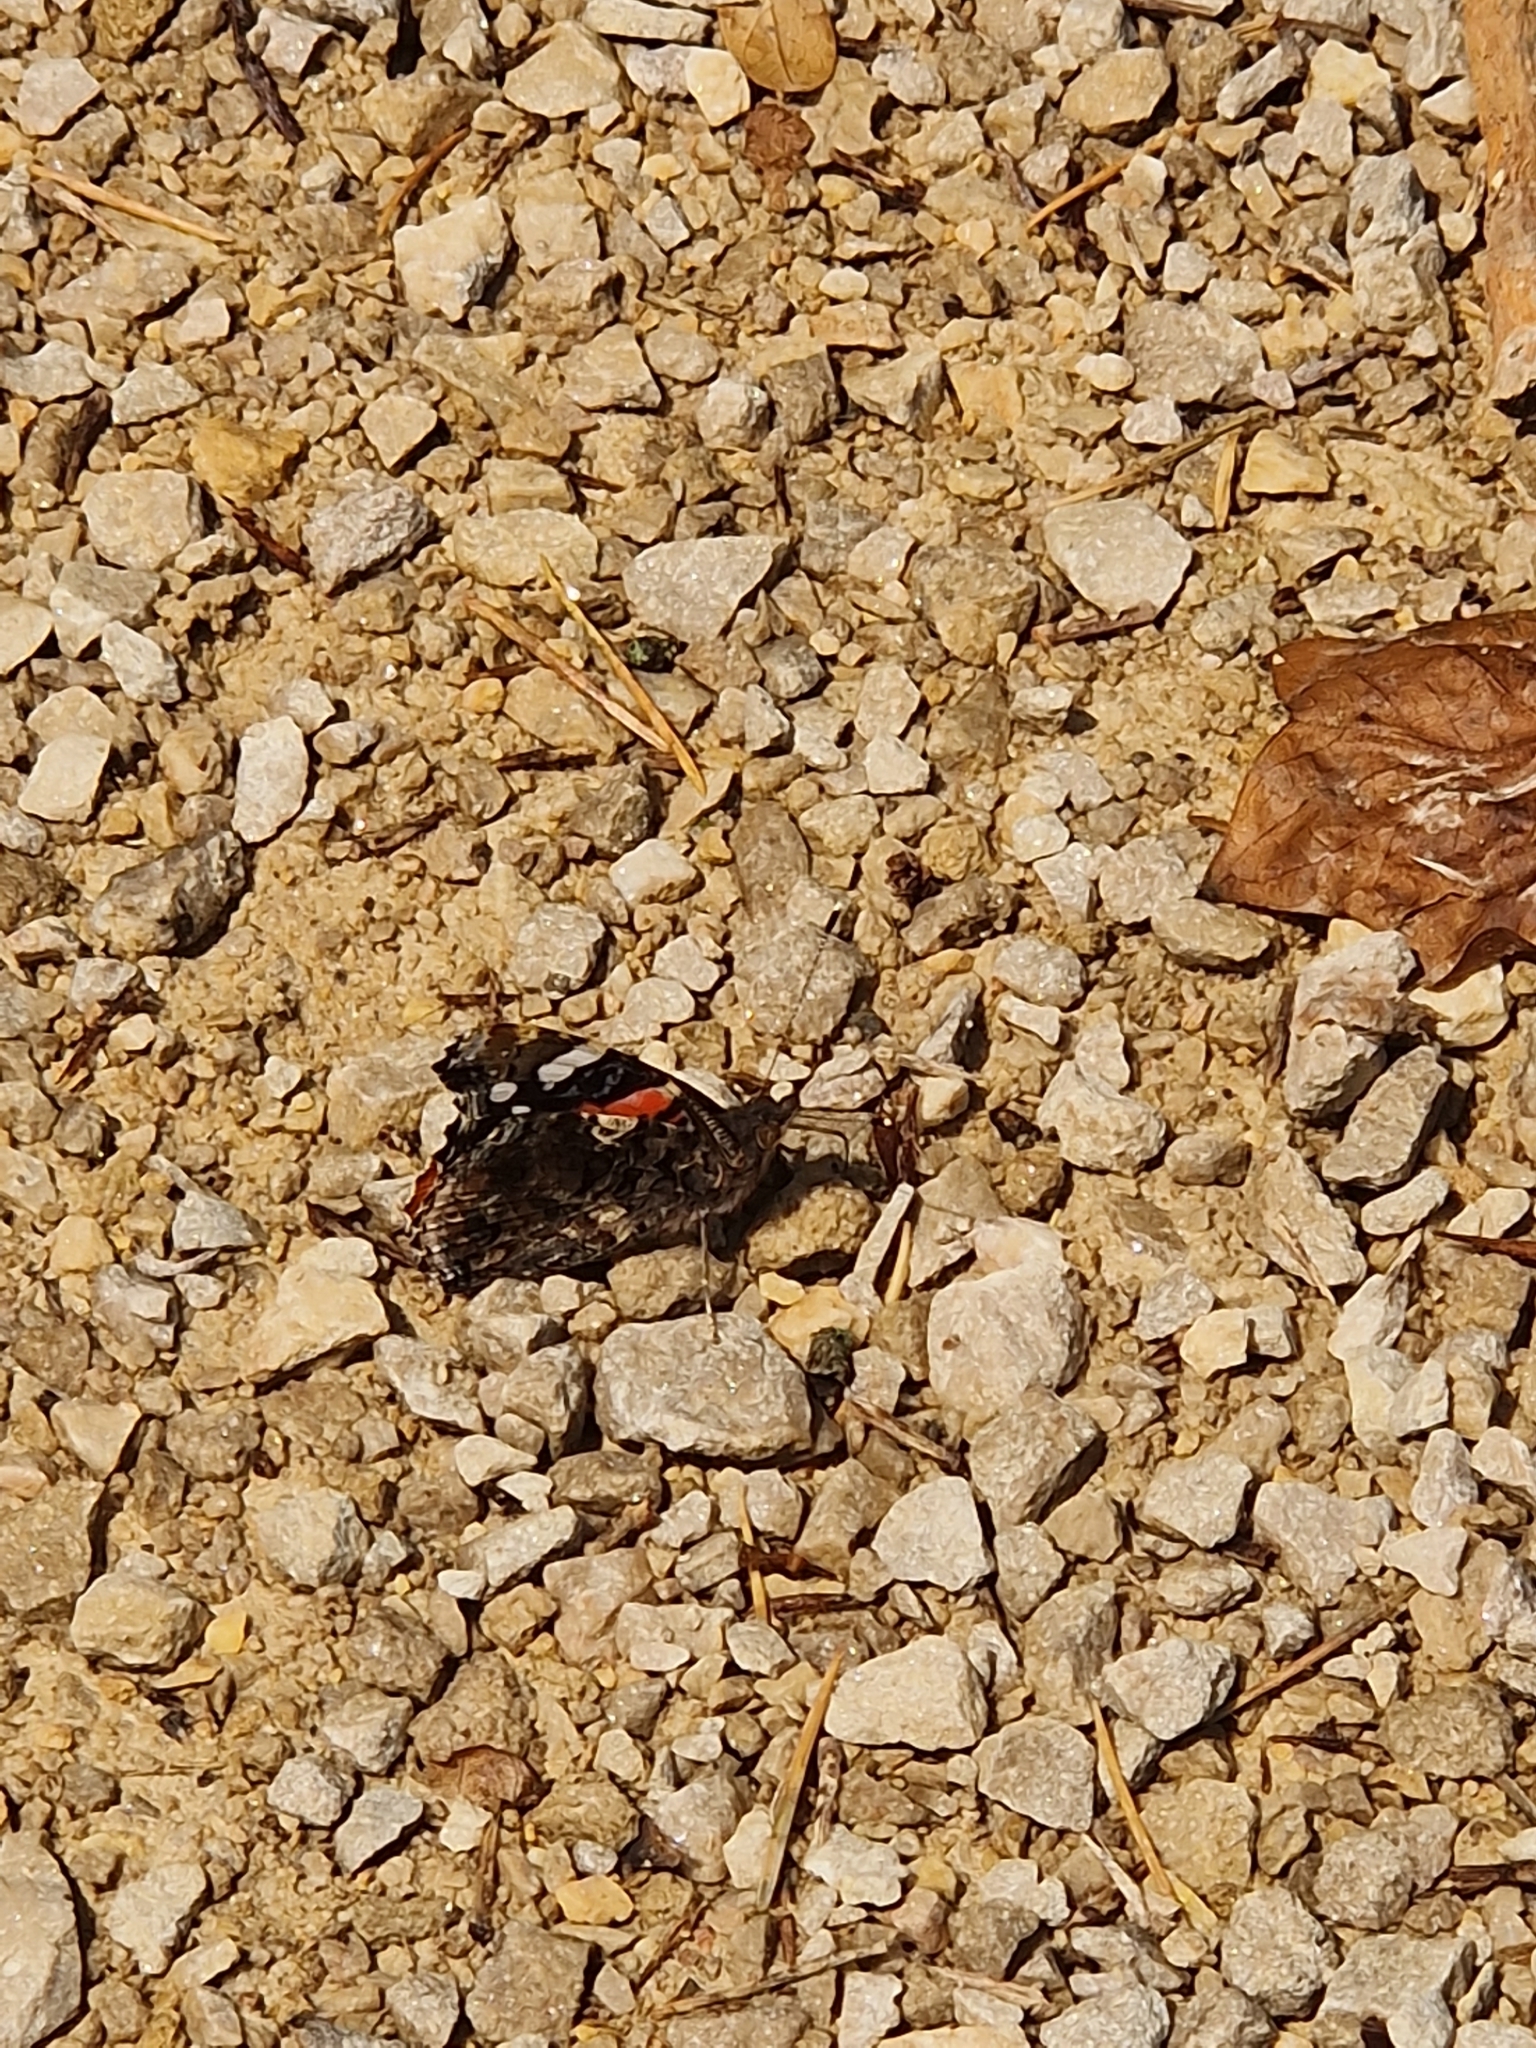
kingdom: Animalia
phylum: Arthropoda
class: Insecta
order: Lepidoptera
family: Nymphalidae
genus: Vanessa
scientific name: Vanessa atalanta
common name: Red admiral
